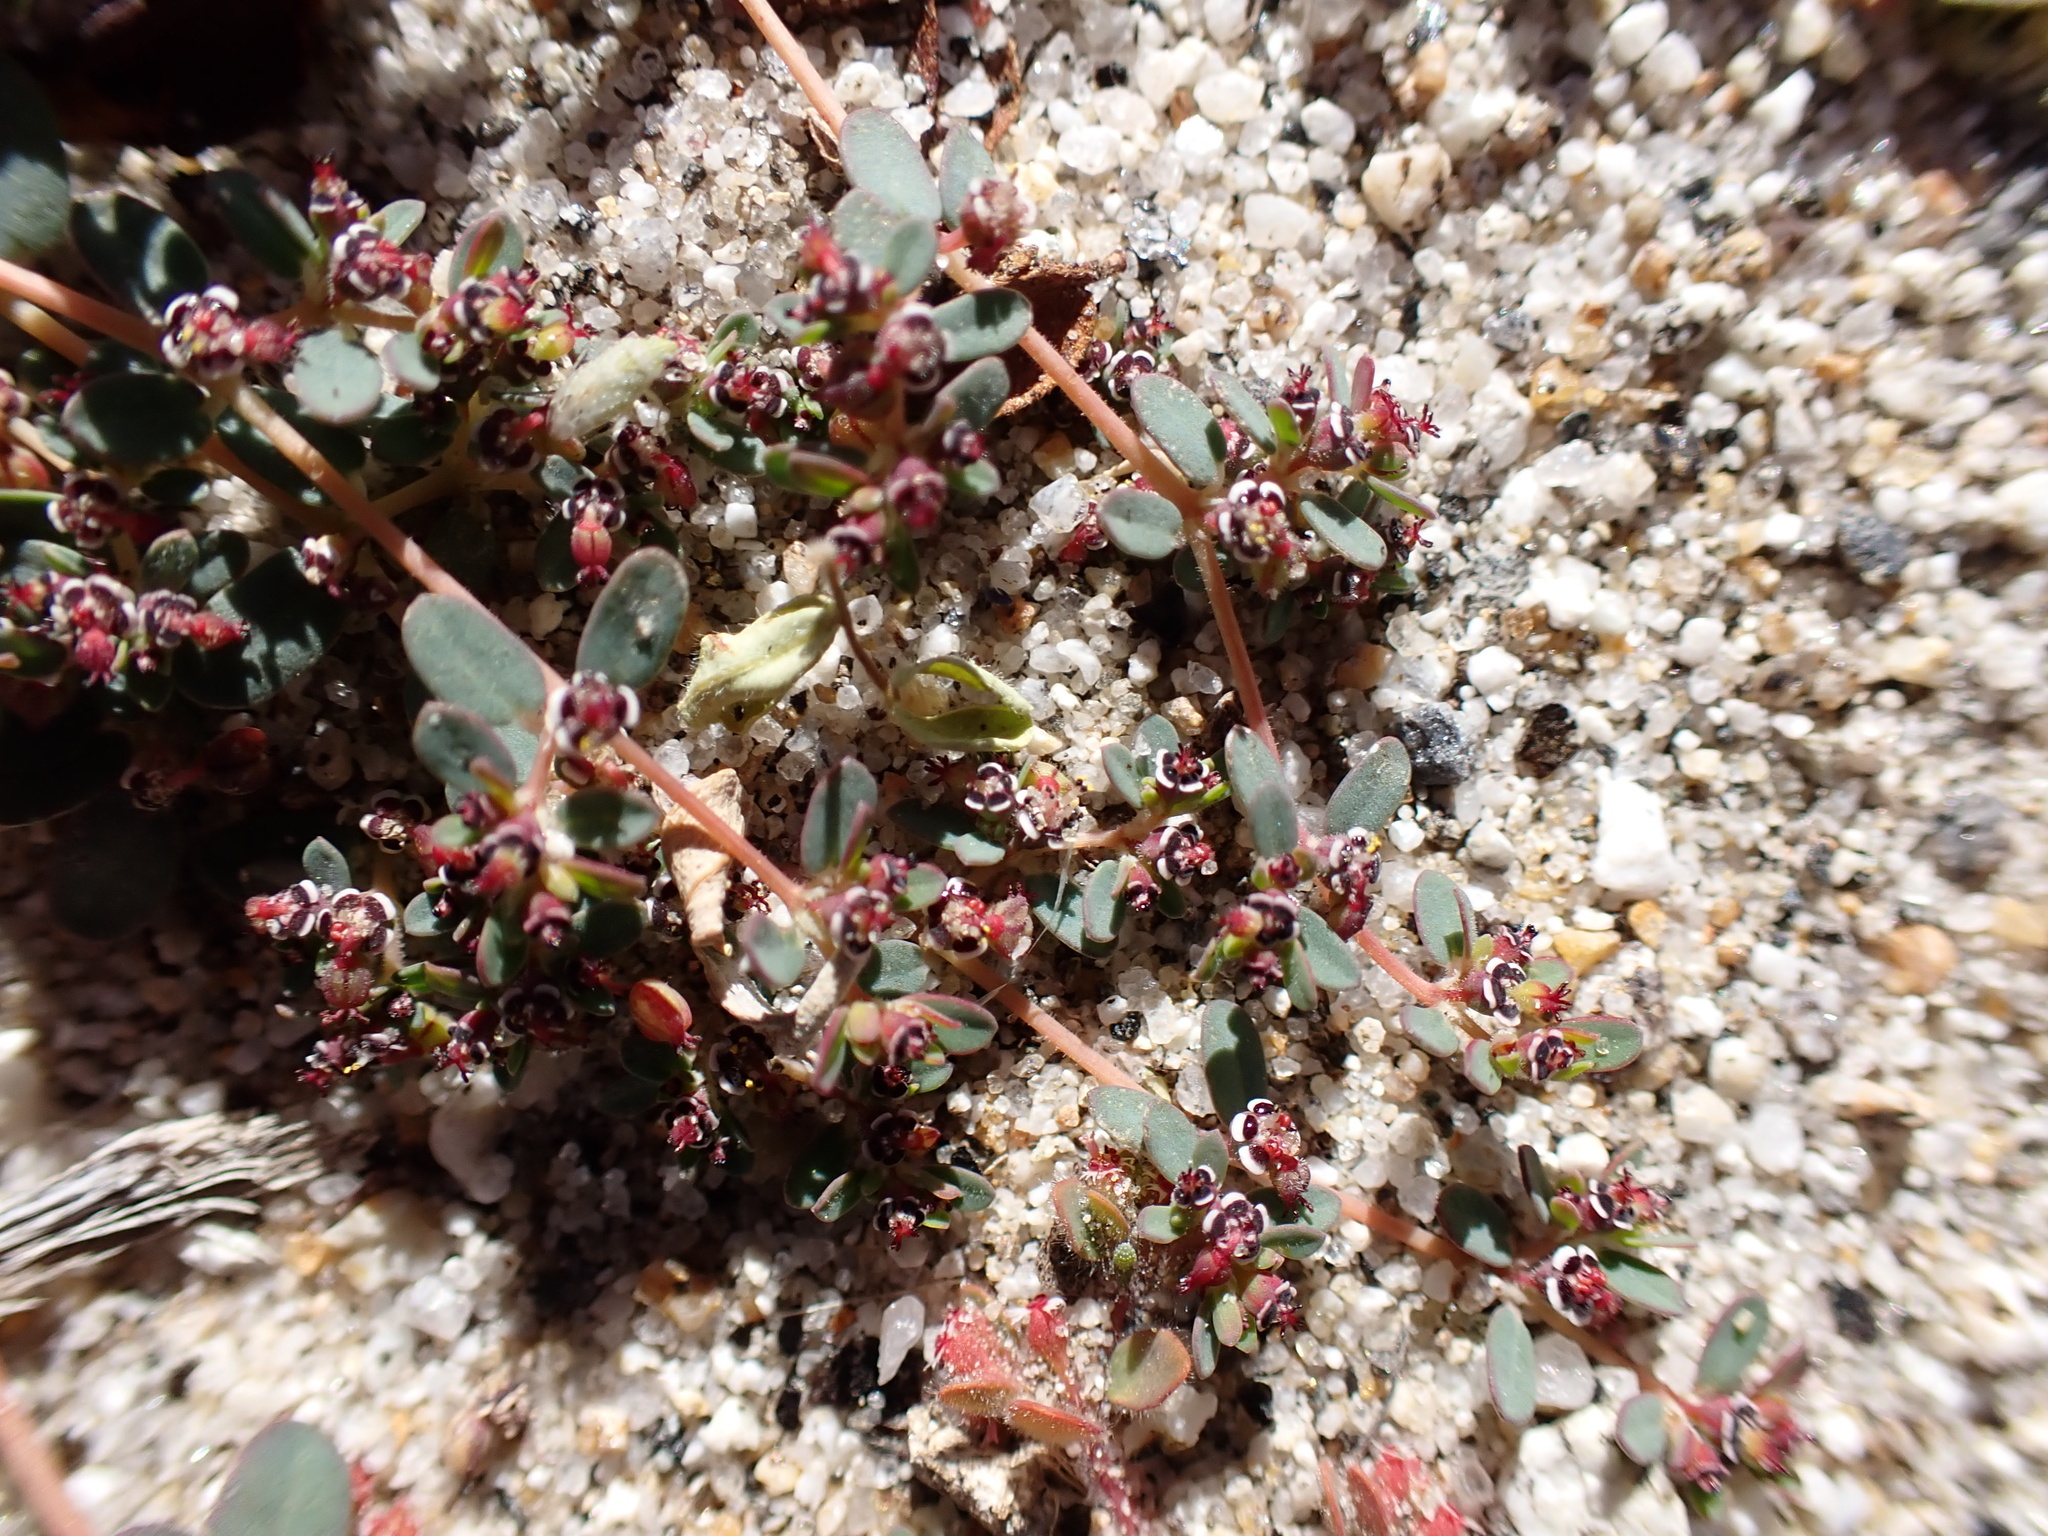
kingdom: Plantae
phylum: Tracheophyta
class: Magnoliopsida
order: Malpighiales
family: Euphorbiaceae
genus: Euphorbia
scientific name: Euphorbia polycarpa
